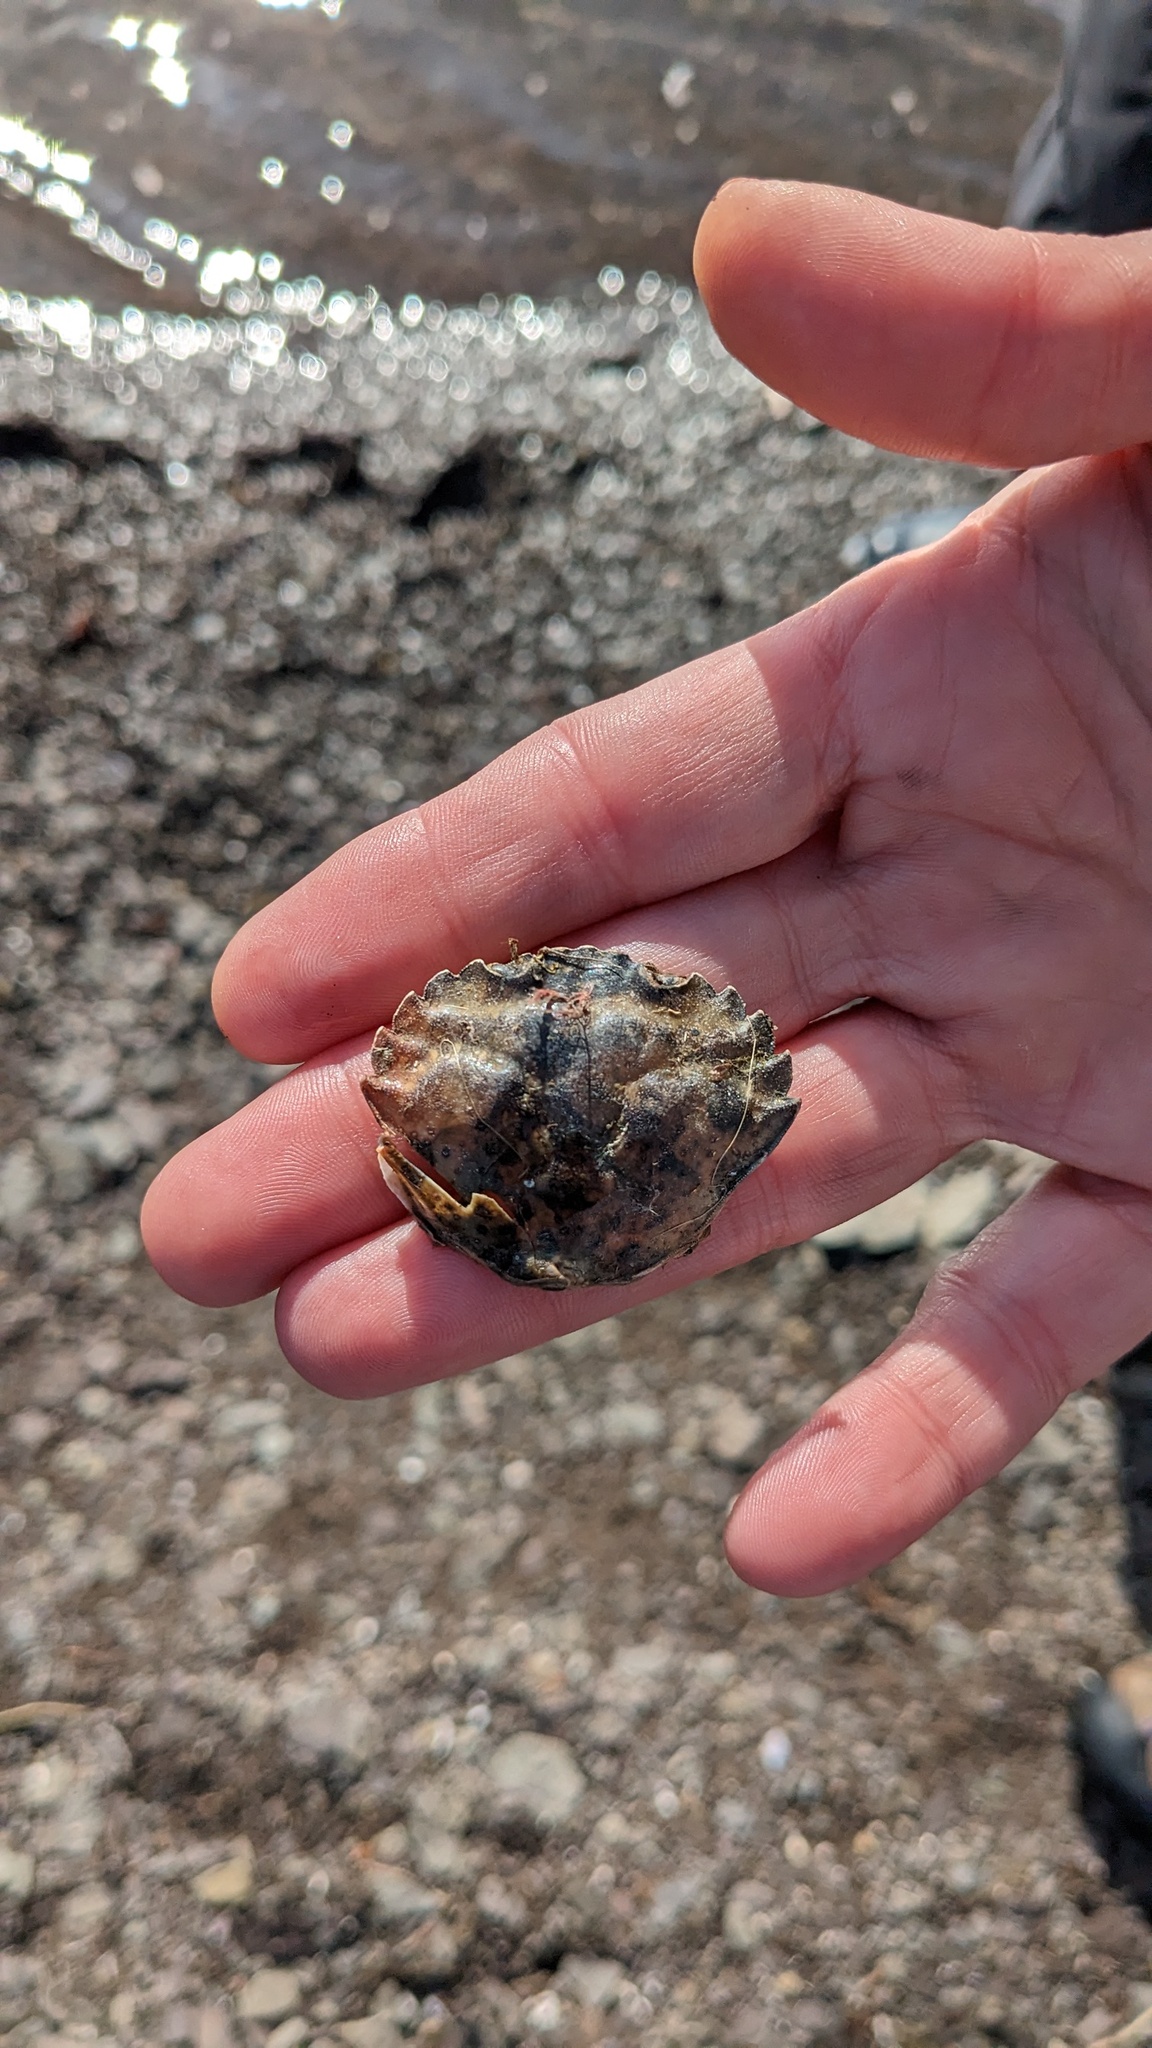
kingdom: Animalia
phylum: Arthropoda
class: Malacostraca
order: Decapoda
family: Carcinidae
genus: Carcinus
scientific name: Carcinus maenas
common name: European green crab
